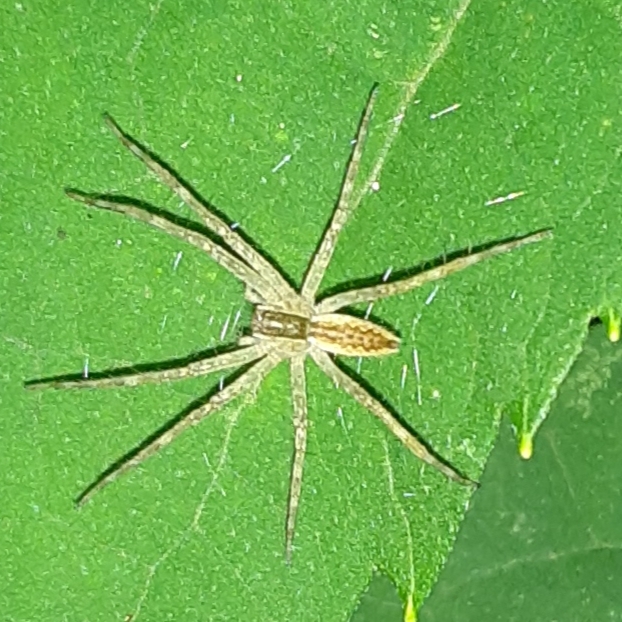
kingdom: Animalia
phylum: Arthropoda
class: Arachnida
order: Araneae
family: Pisauridae
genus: Pisaurina
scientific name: Pisaurina mira
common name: American nursery web spider
